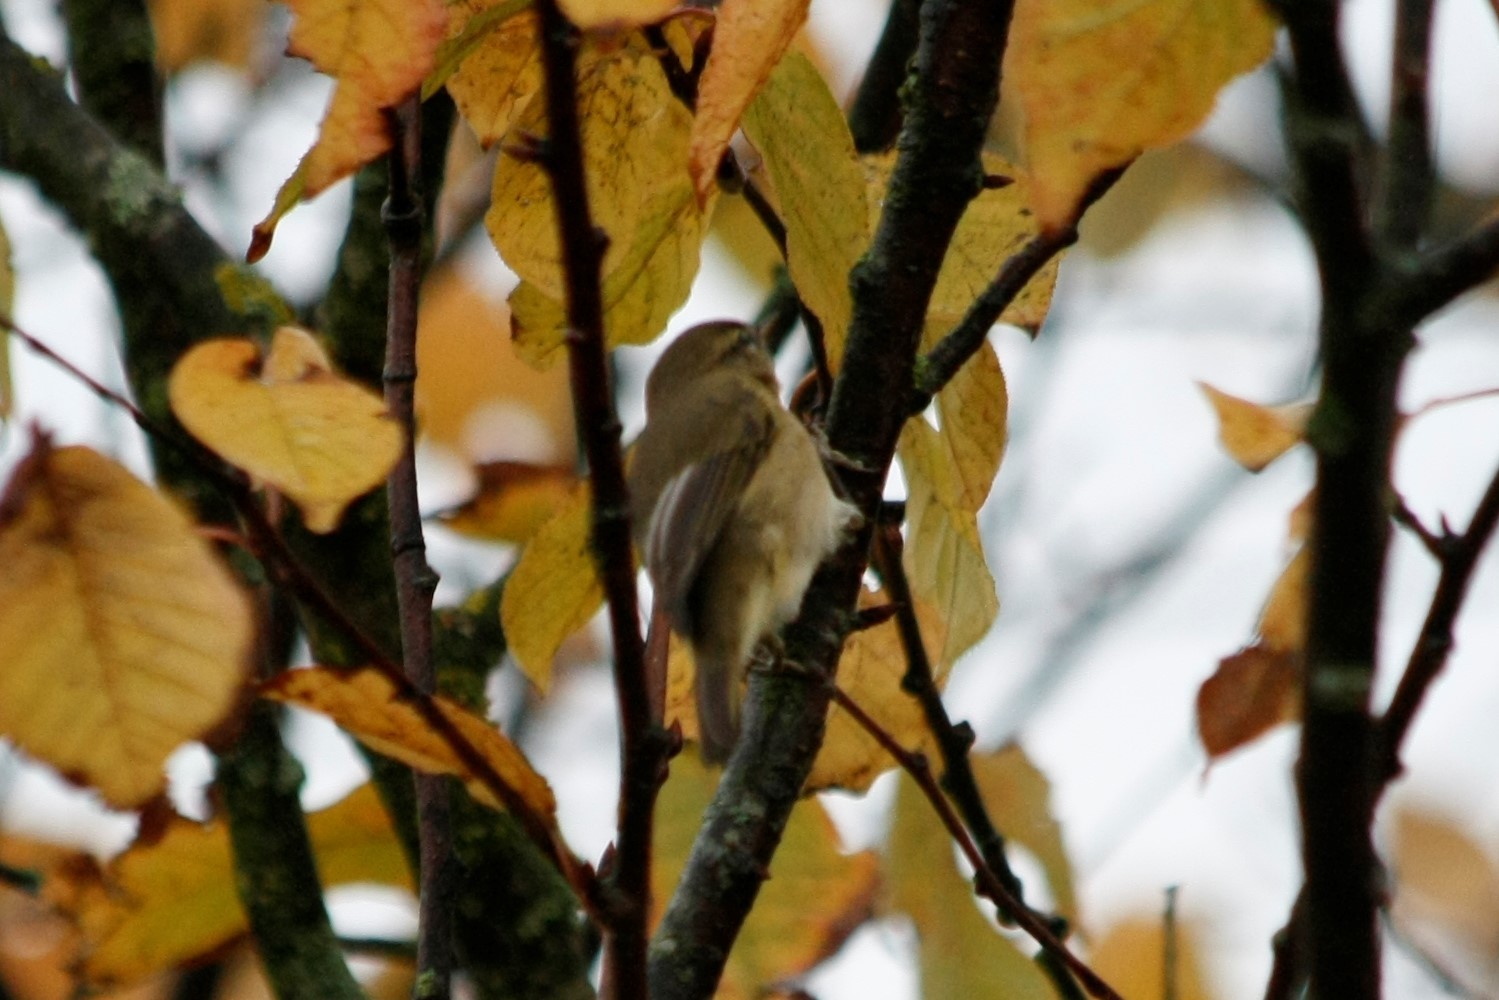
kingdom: Animalia
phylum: Chordata
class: Aves
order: Passeriformes
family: Phylloscopidae
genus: Phylloscopus
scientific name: Phylloscopus collybita
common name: Common chiffchaff
